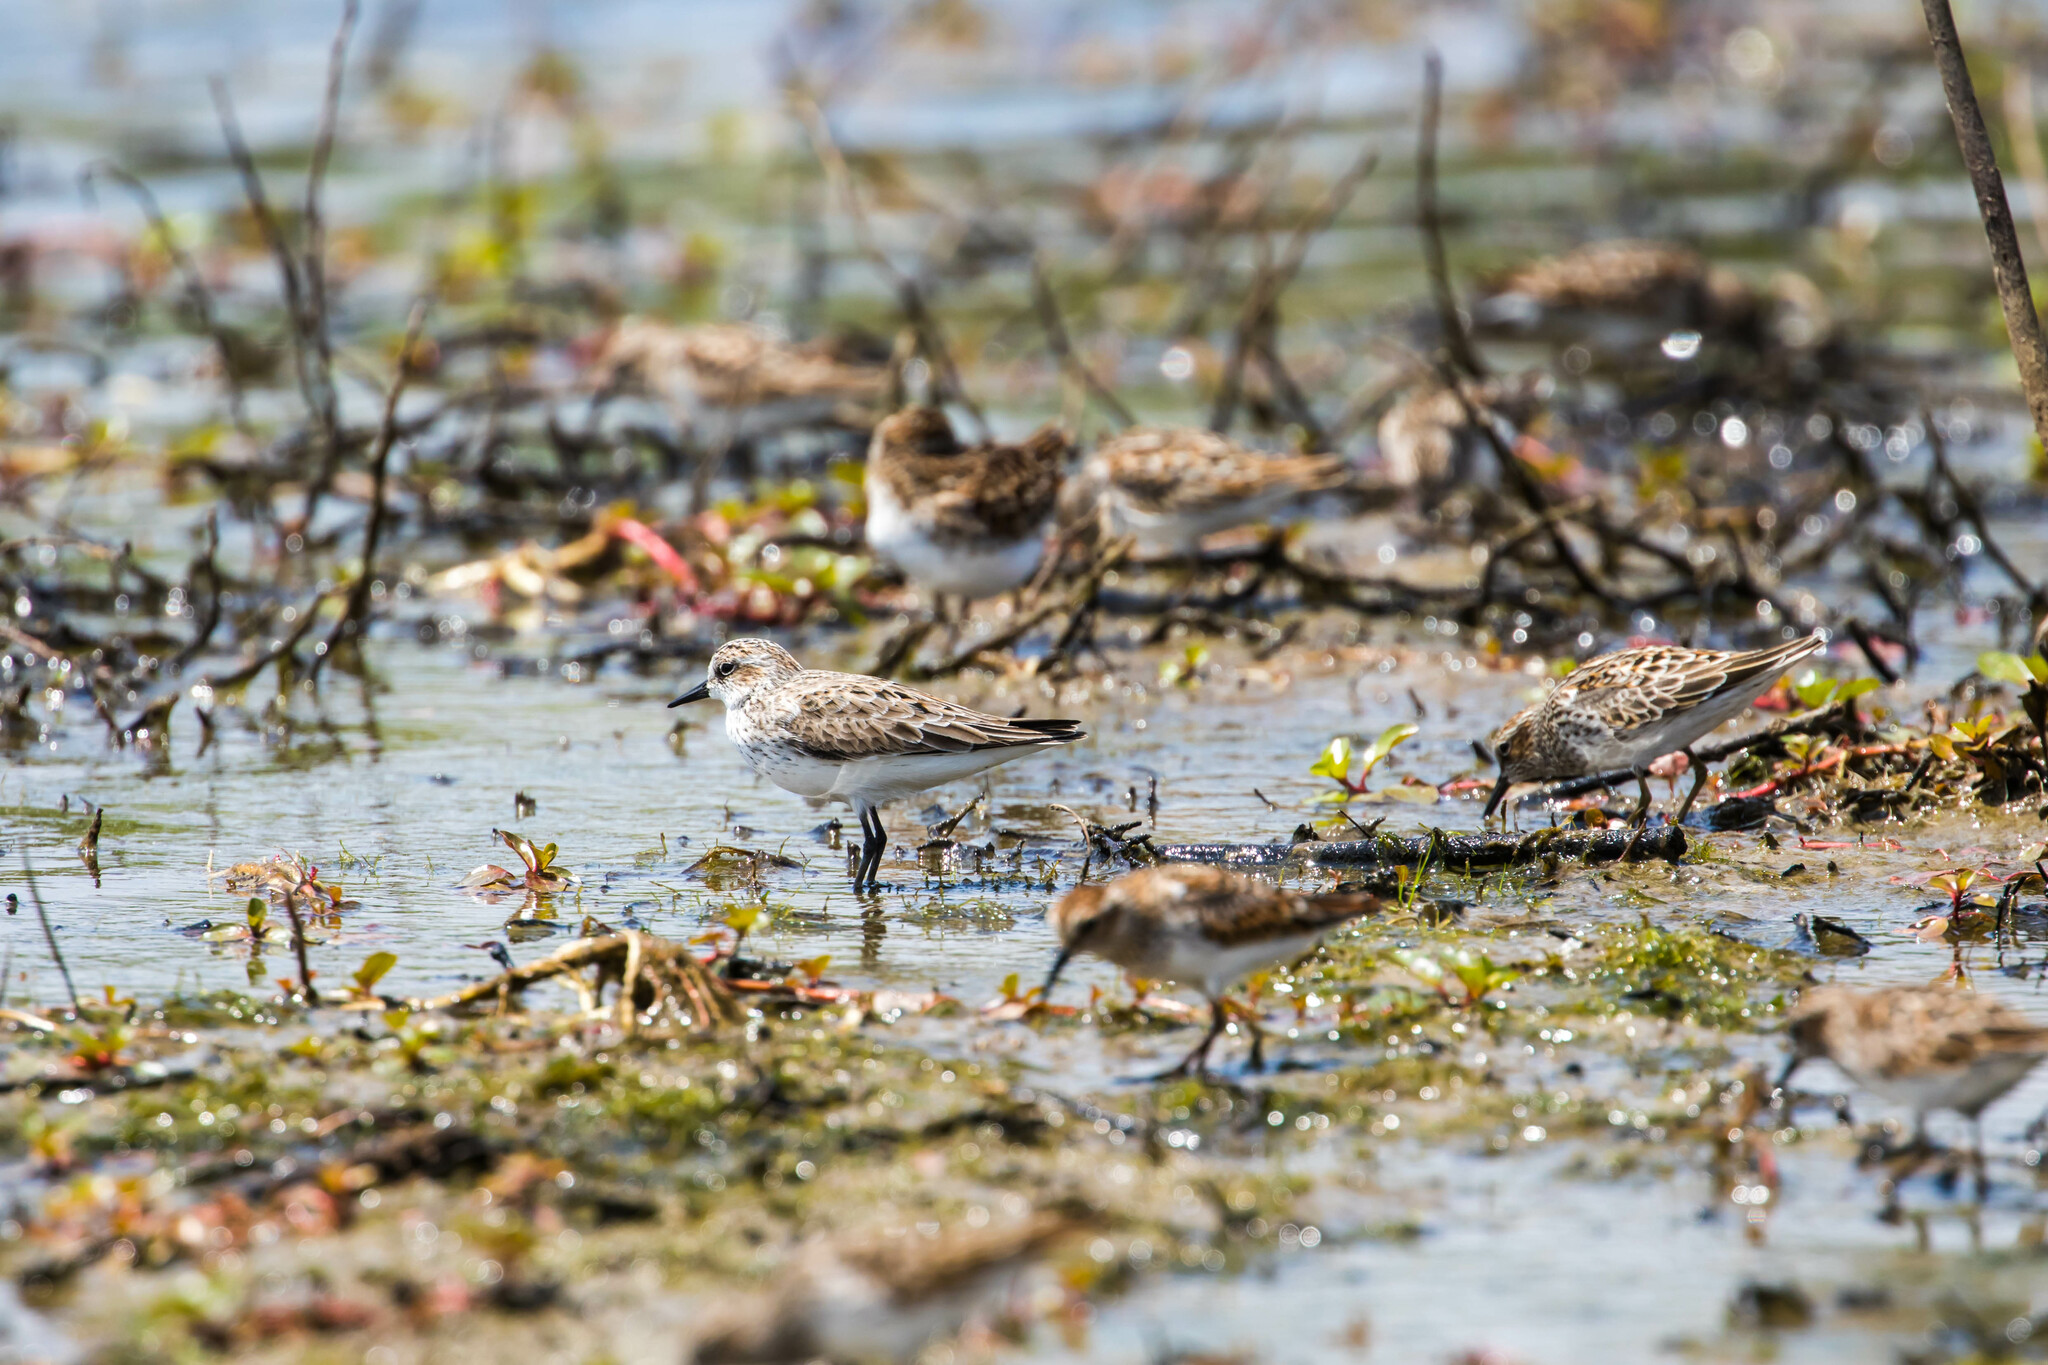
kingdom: Animalia
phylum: Chordata
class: Aves
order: Charadriiformes
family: Scolopacidae
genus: Calidris
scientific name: Calidris pusilla
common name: Semipalmated sandpiper
